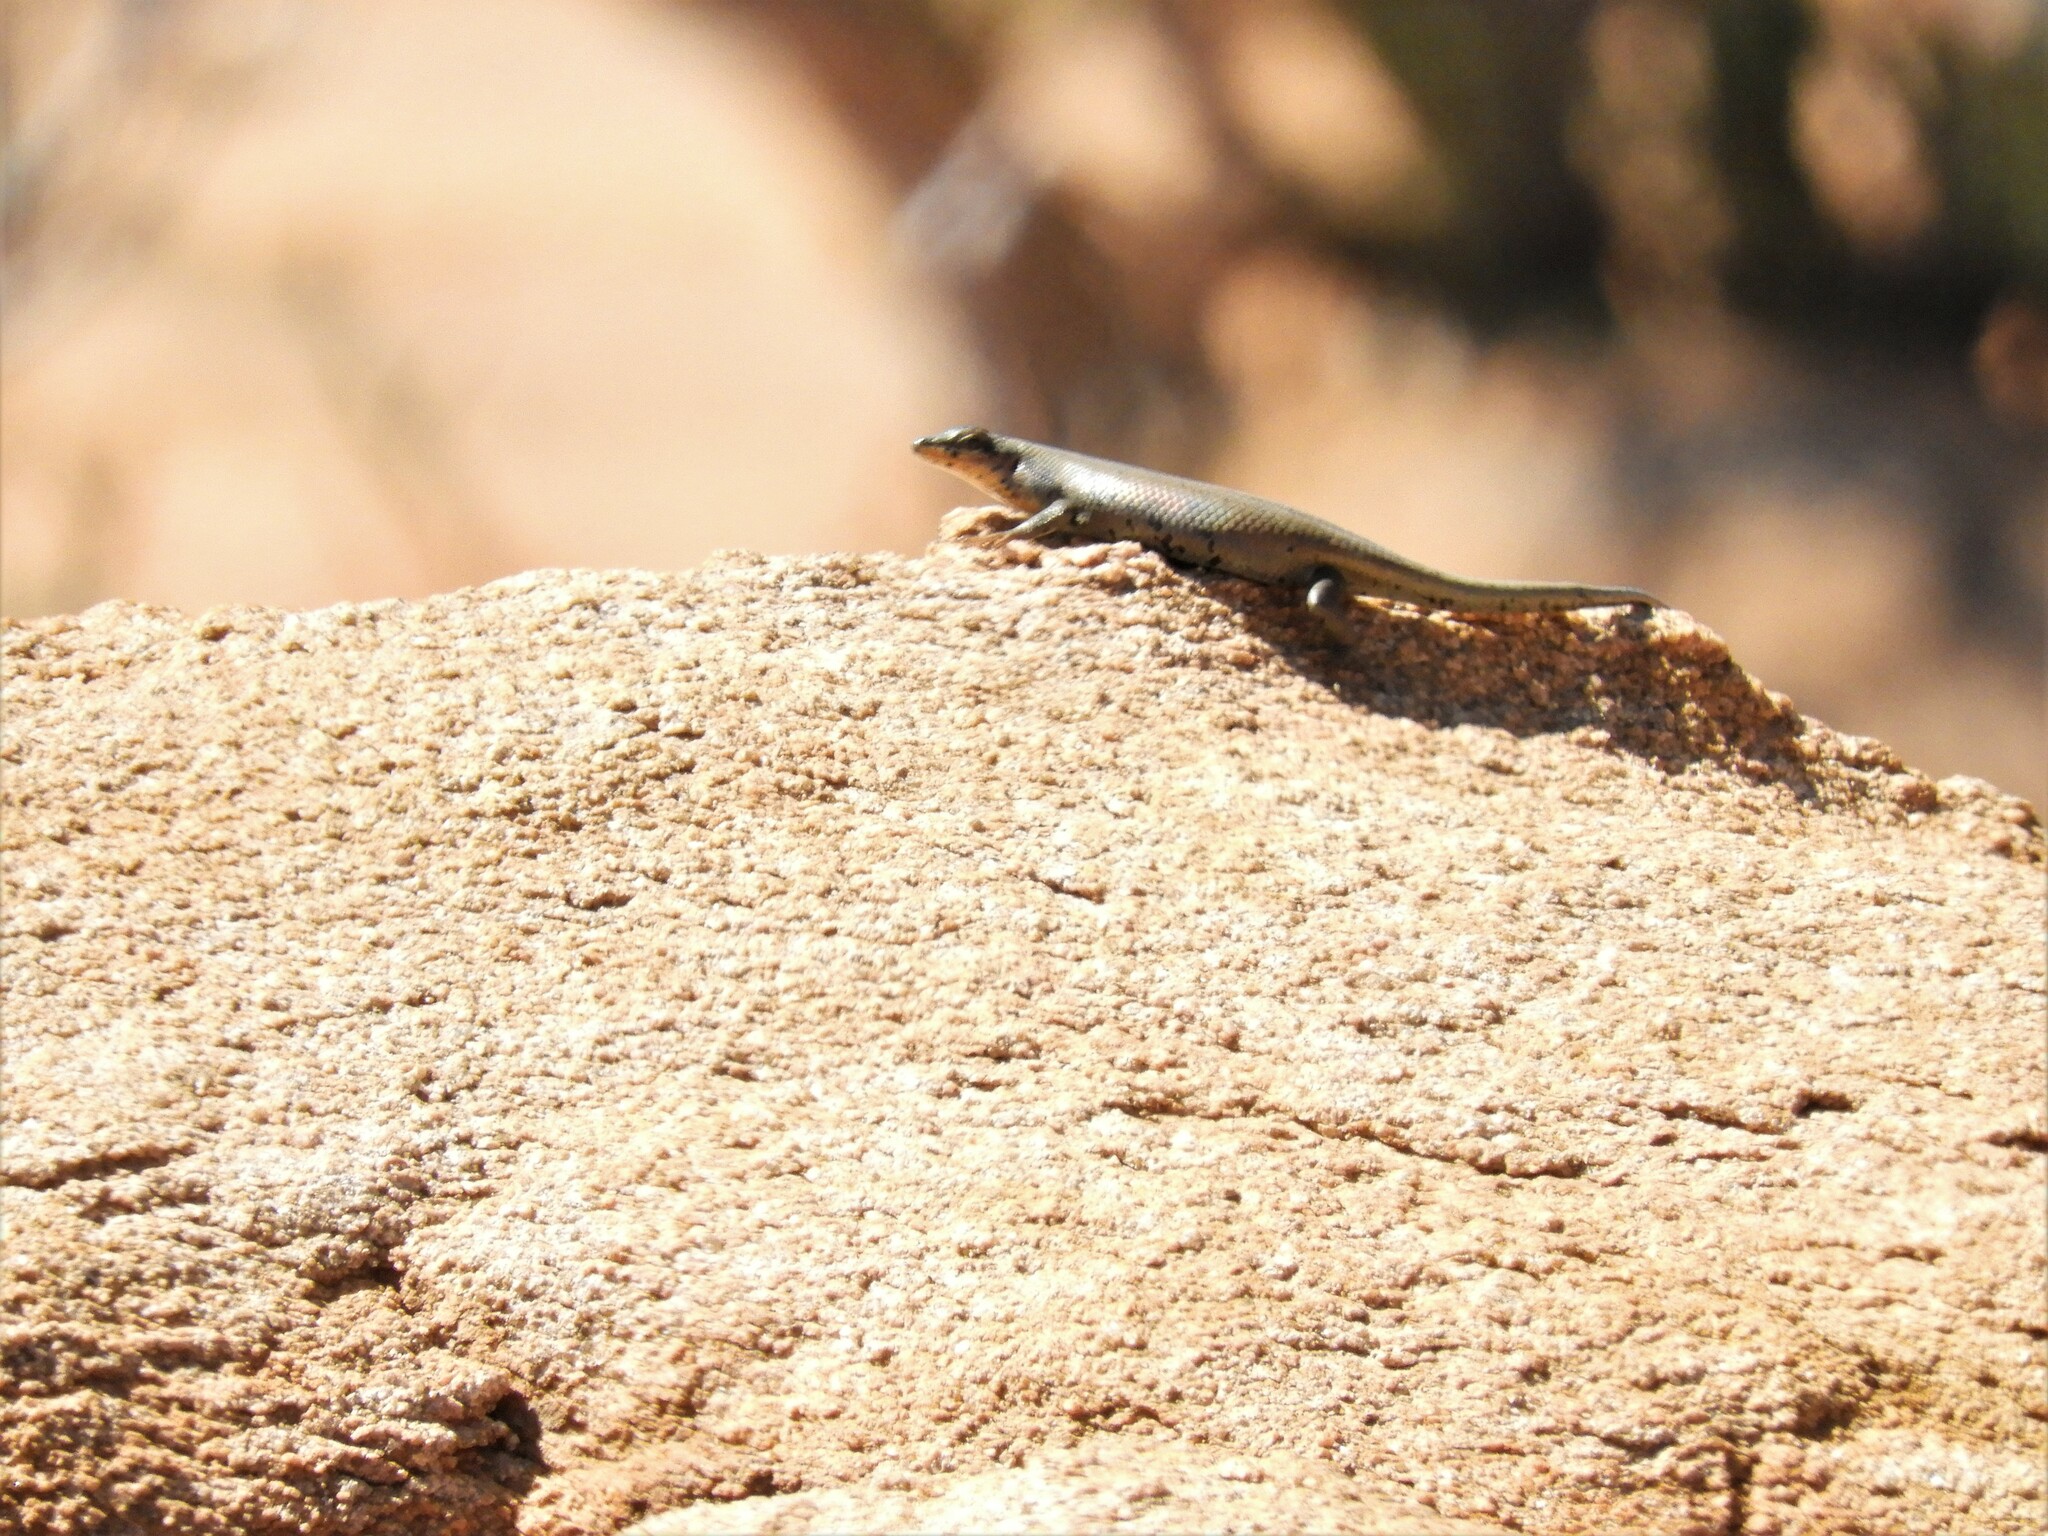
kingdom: Animalia
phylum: Chordata
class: Squamata
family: Scincidae
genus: Trachylepis
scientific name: Trachylepis sulcata
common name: Western rock skink
